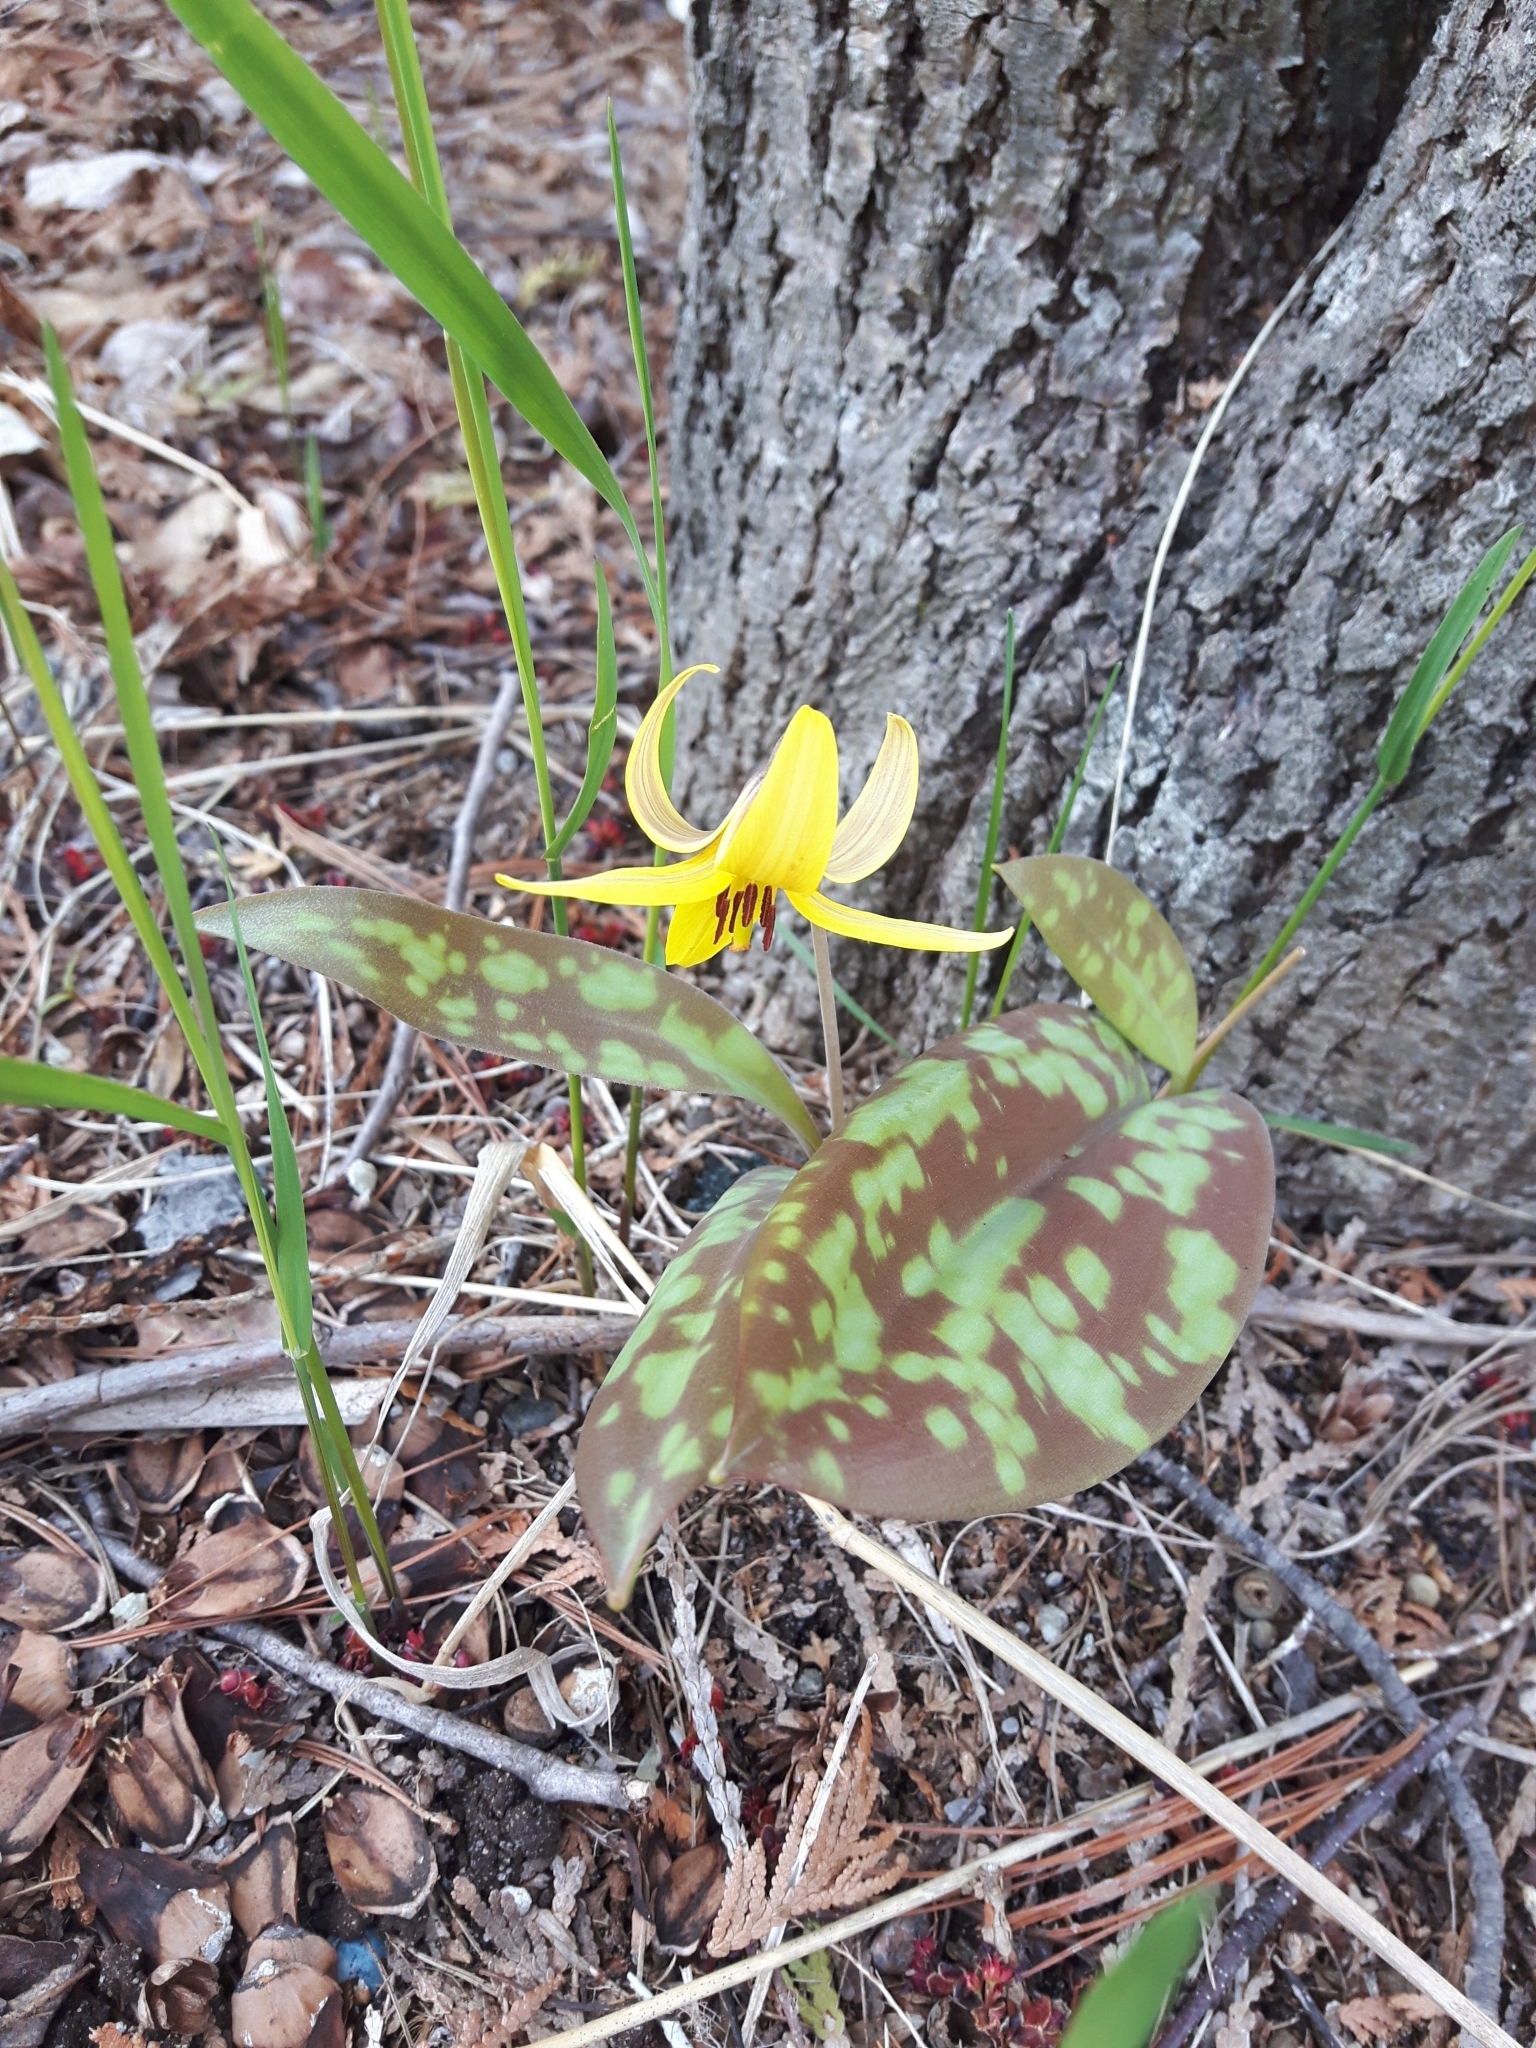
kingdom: Plantae
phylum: Tracheophyta
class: Liliopsida
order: Liliales
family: Liliaceae
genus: Erythronium
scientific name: Erythronium americanum
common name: Yellow adder's-tongue
